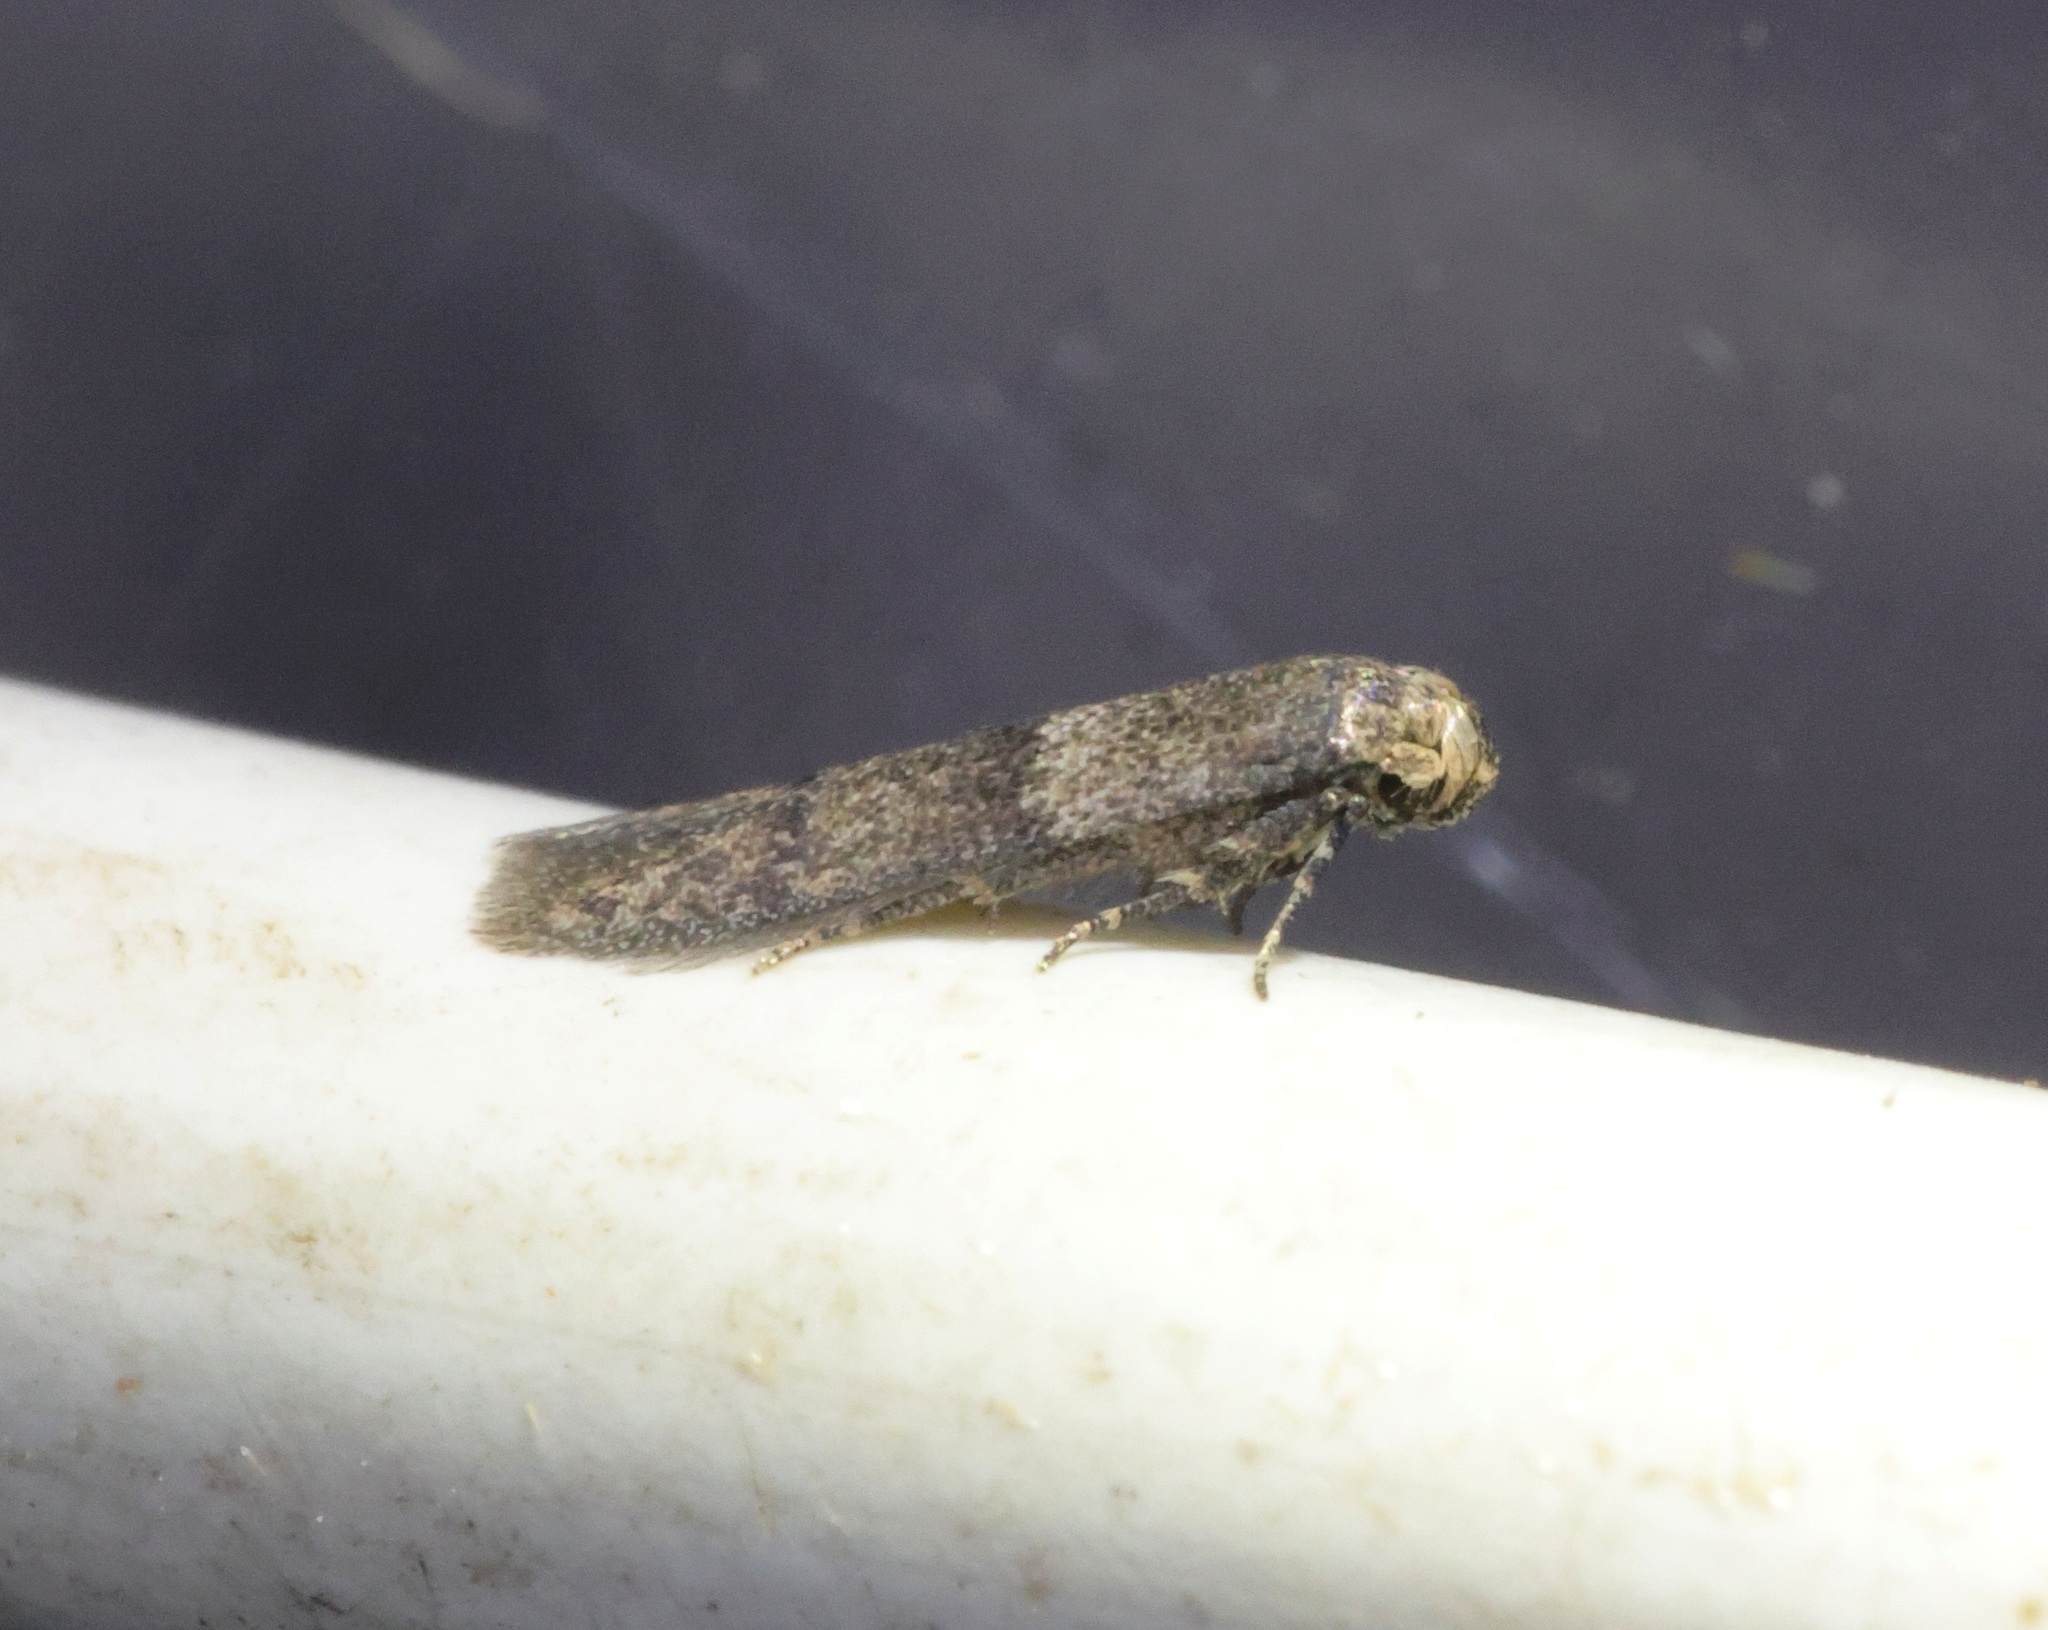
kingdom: Animalia
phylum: Arthropoda
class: Insecta
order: Lepidoptera
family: Blastobasidae
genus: Blastobasis
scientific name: Blastobasis divulgata
